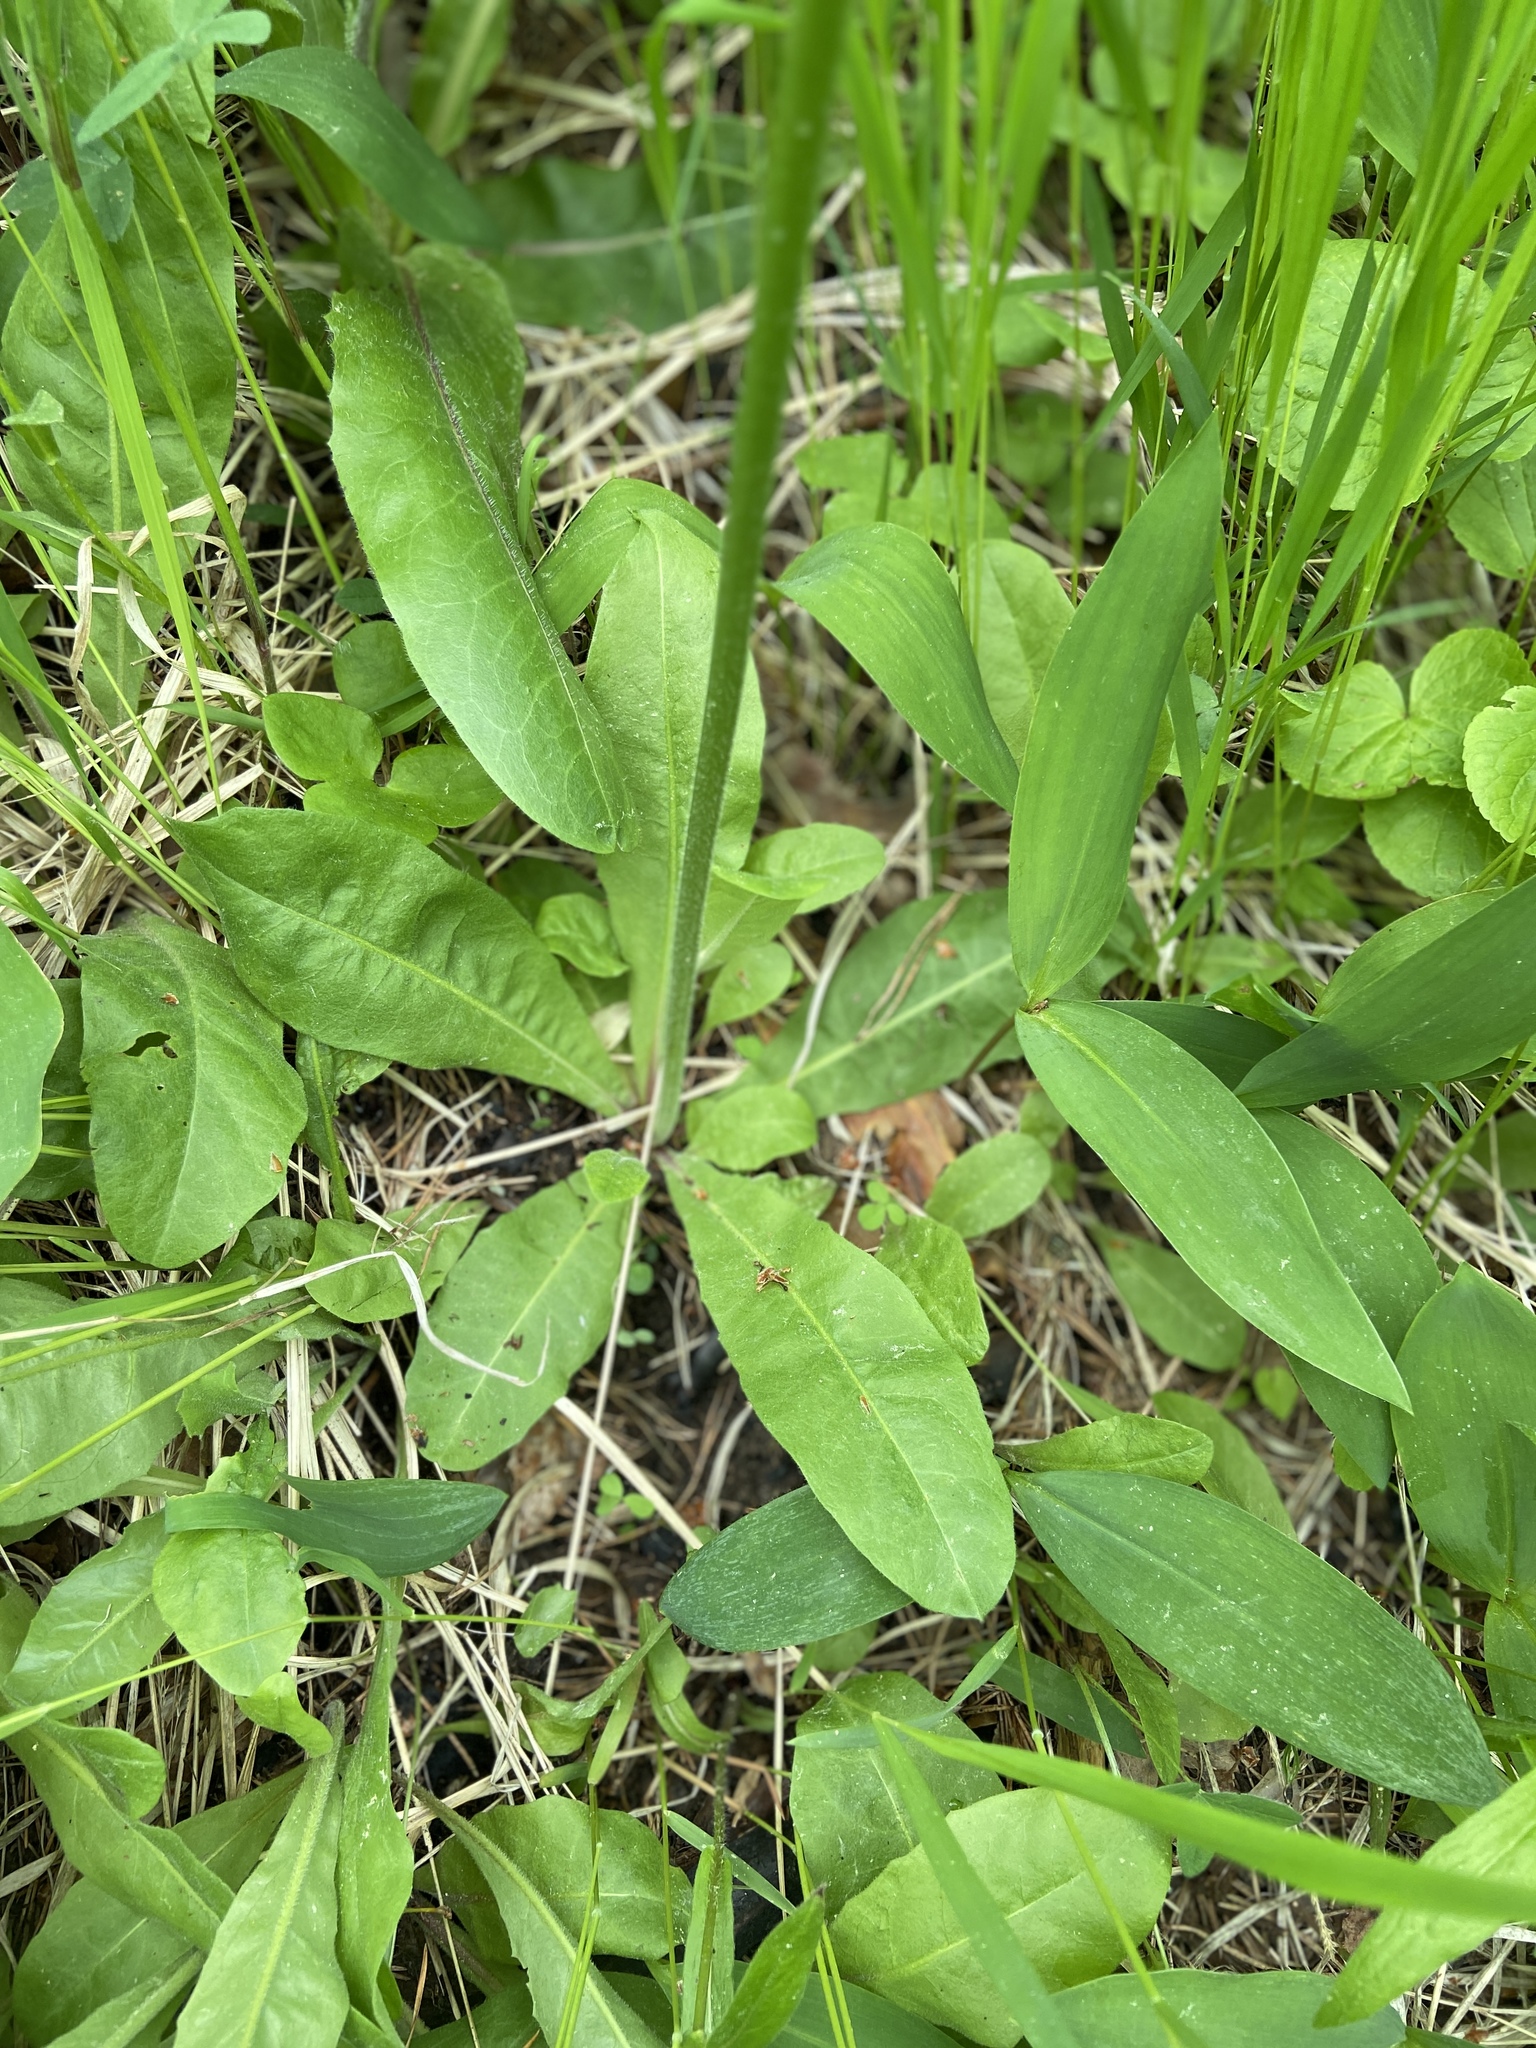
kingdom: Plantae
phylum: Tracheophyta
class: Magnoliopsida
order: Asterales
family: Asteraceae
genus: Crepis
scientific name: Crepis praemorsa
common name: Leafless hawk's-beard
